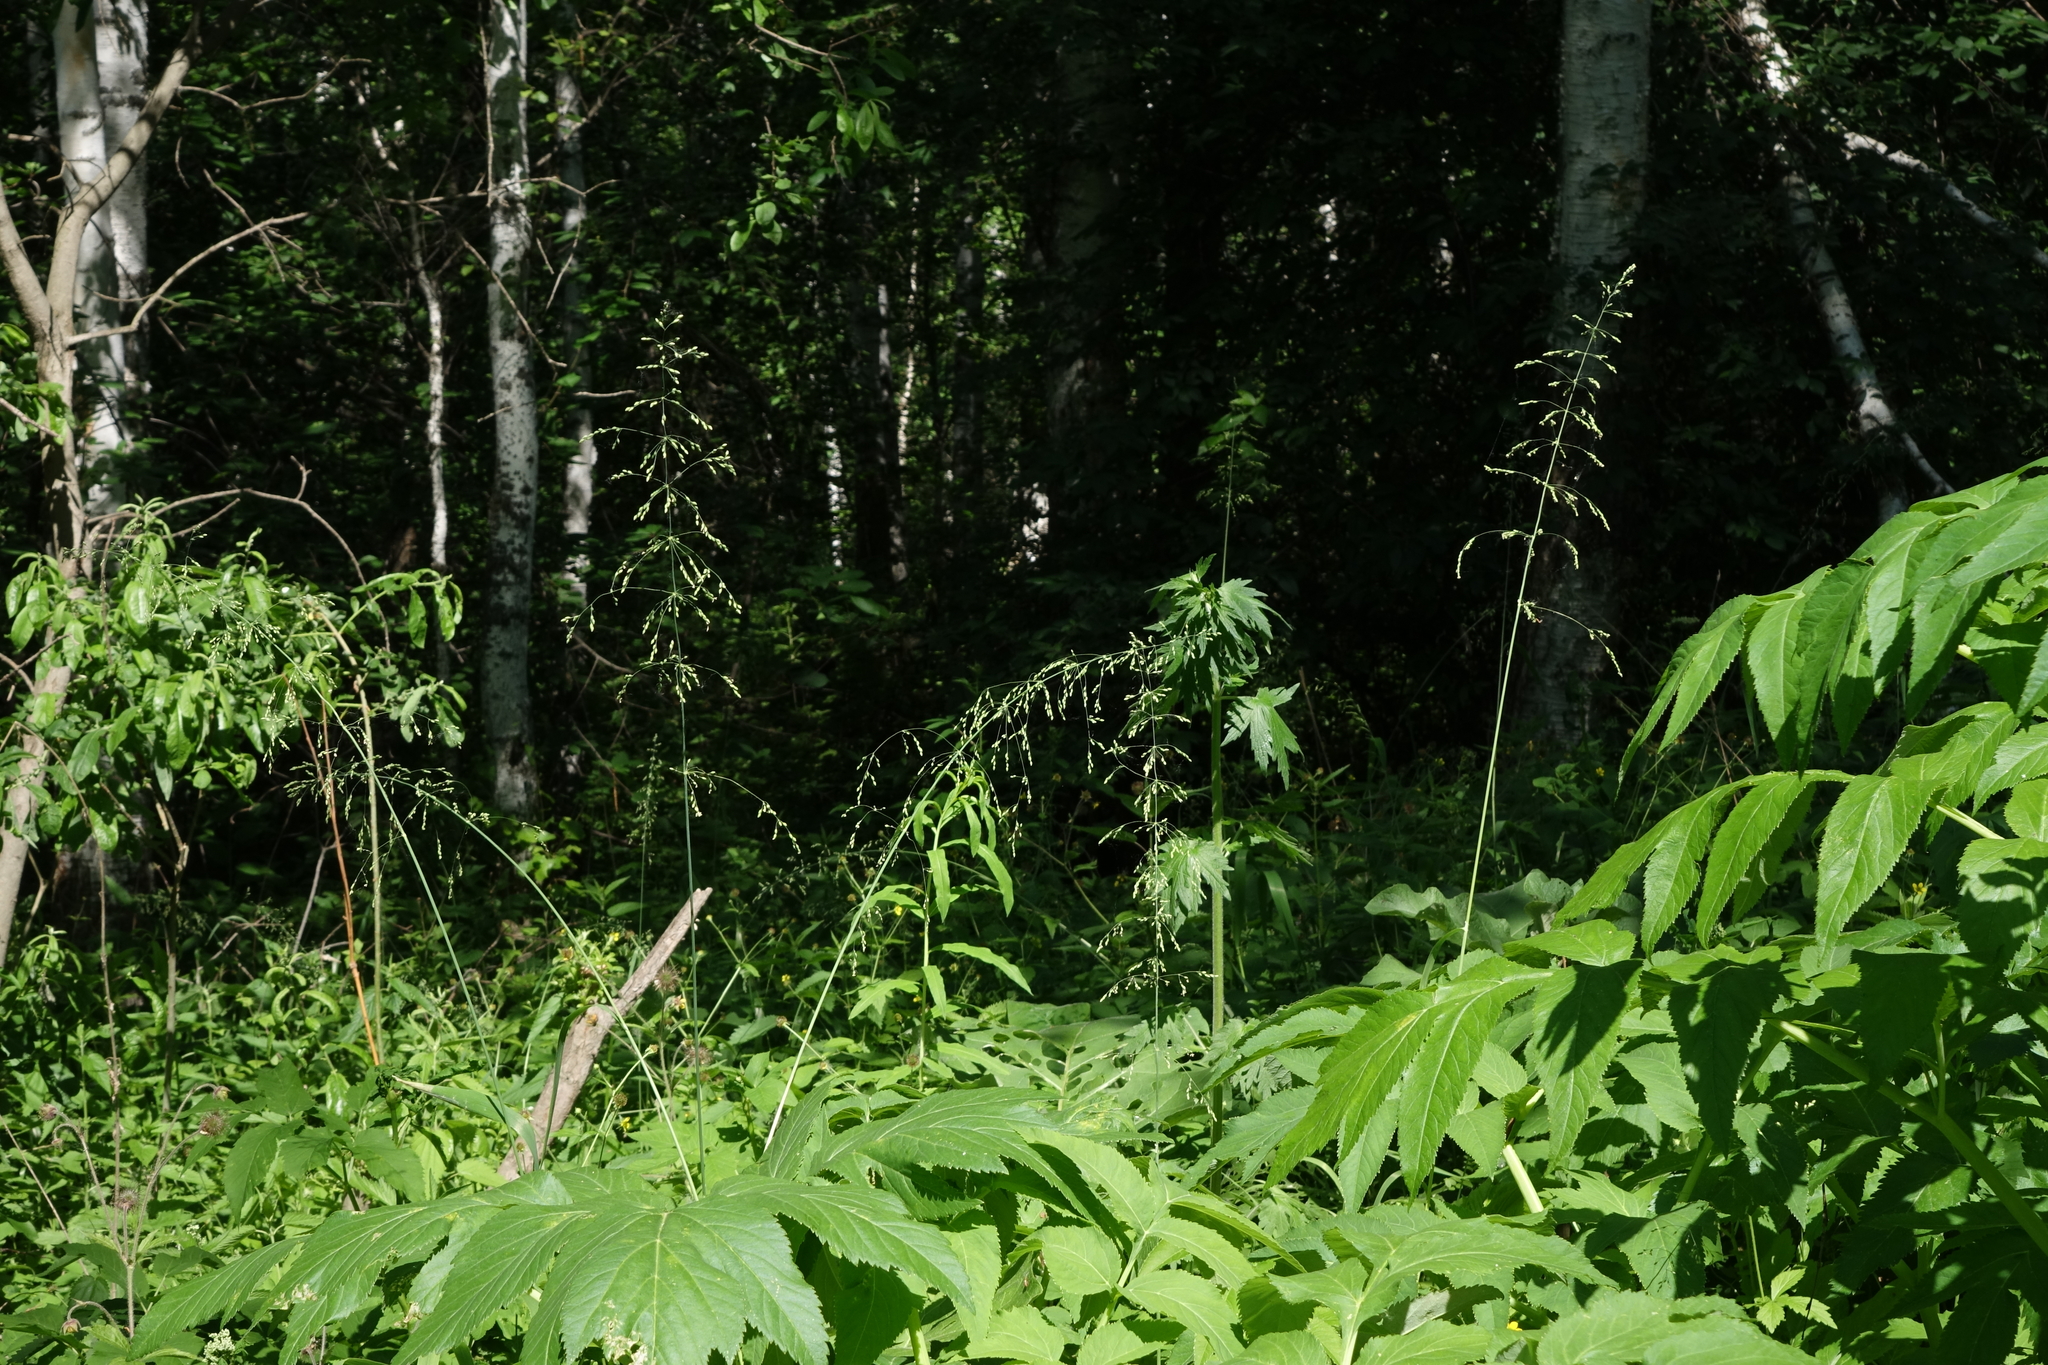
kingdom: Plantae
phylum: Tracheophyta
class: Liliopsida
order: Poales
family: Poaceae
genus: Milium
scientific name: Milium effusum
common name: Wood millet
